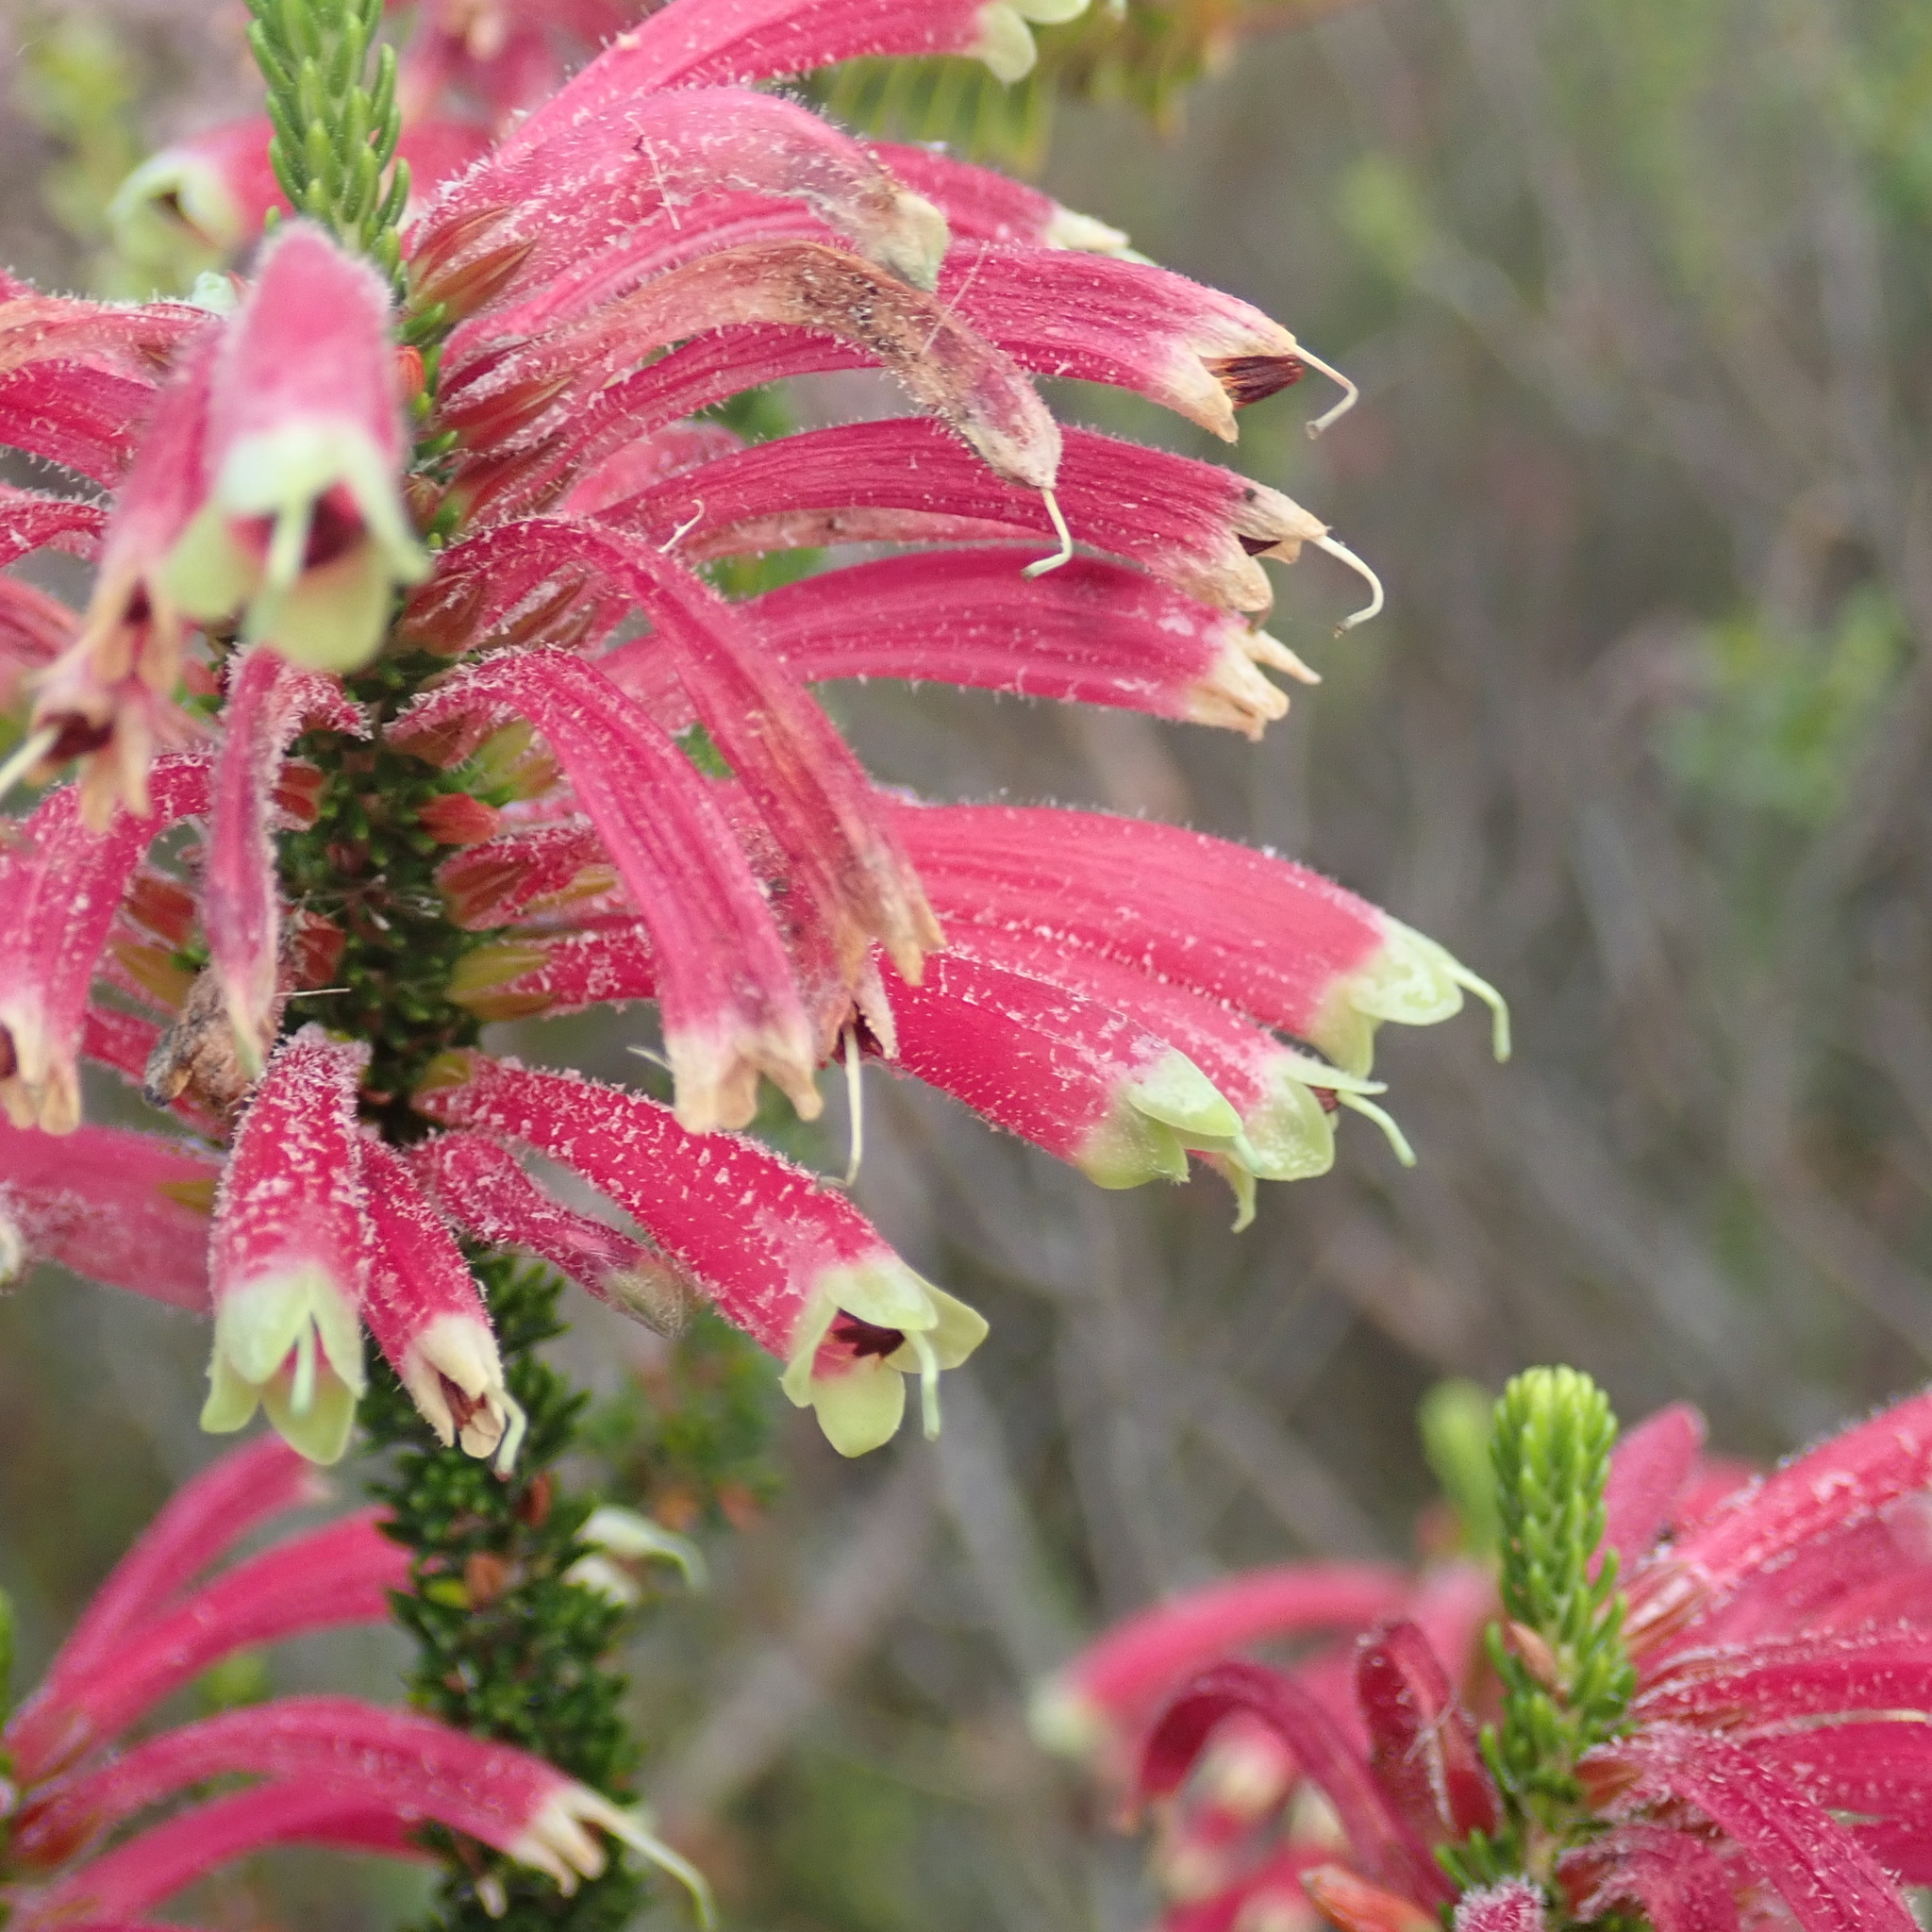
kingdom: Plantae
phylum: Tracheophyta
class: Magnoliopsida
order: Ericales
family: Ericaceae
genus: Erica
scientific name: Erica densifolia
